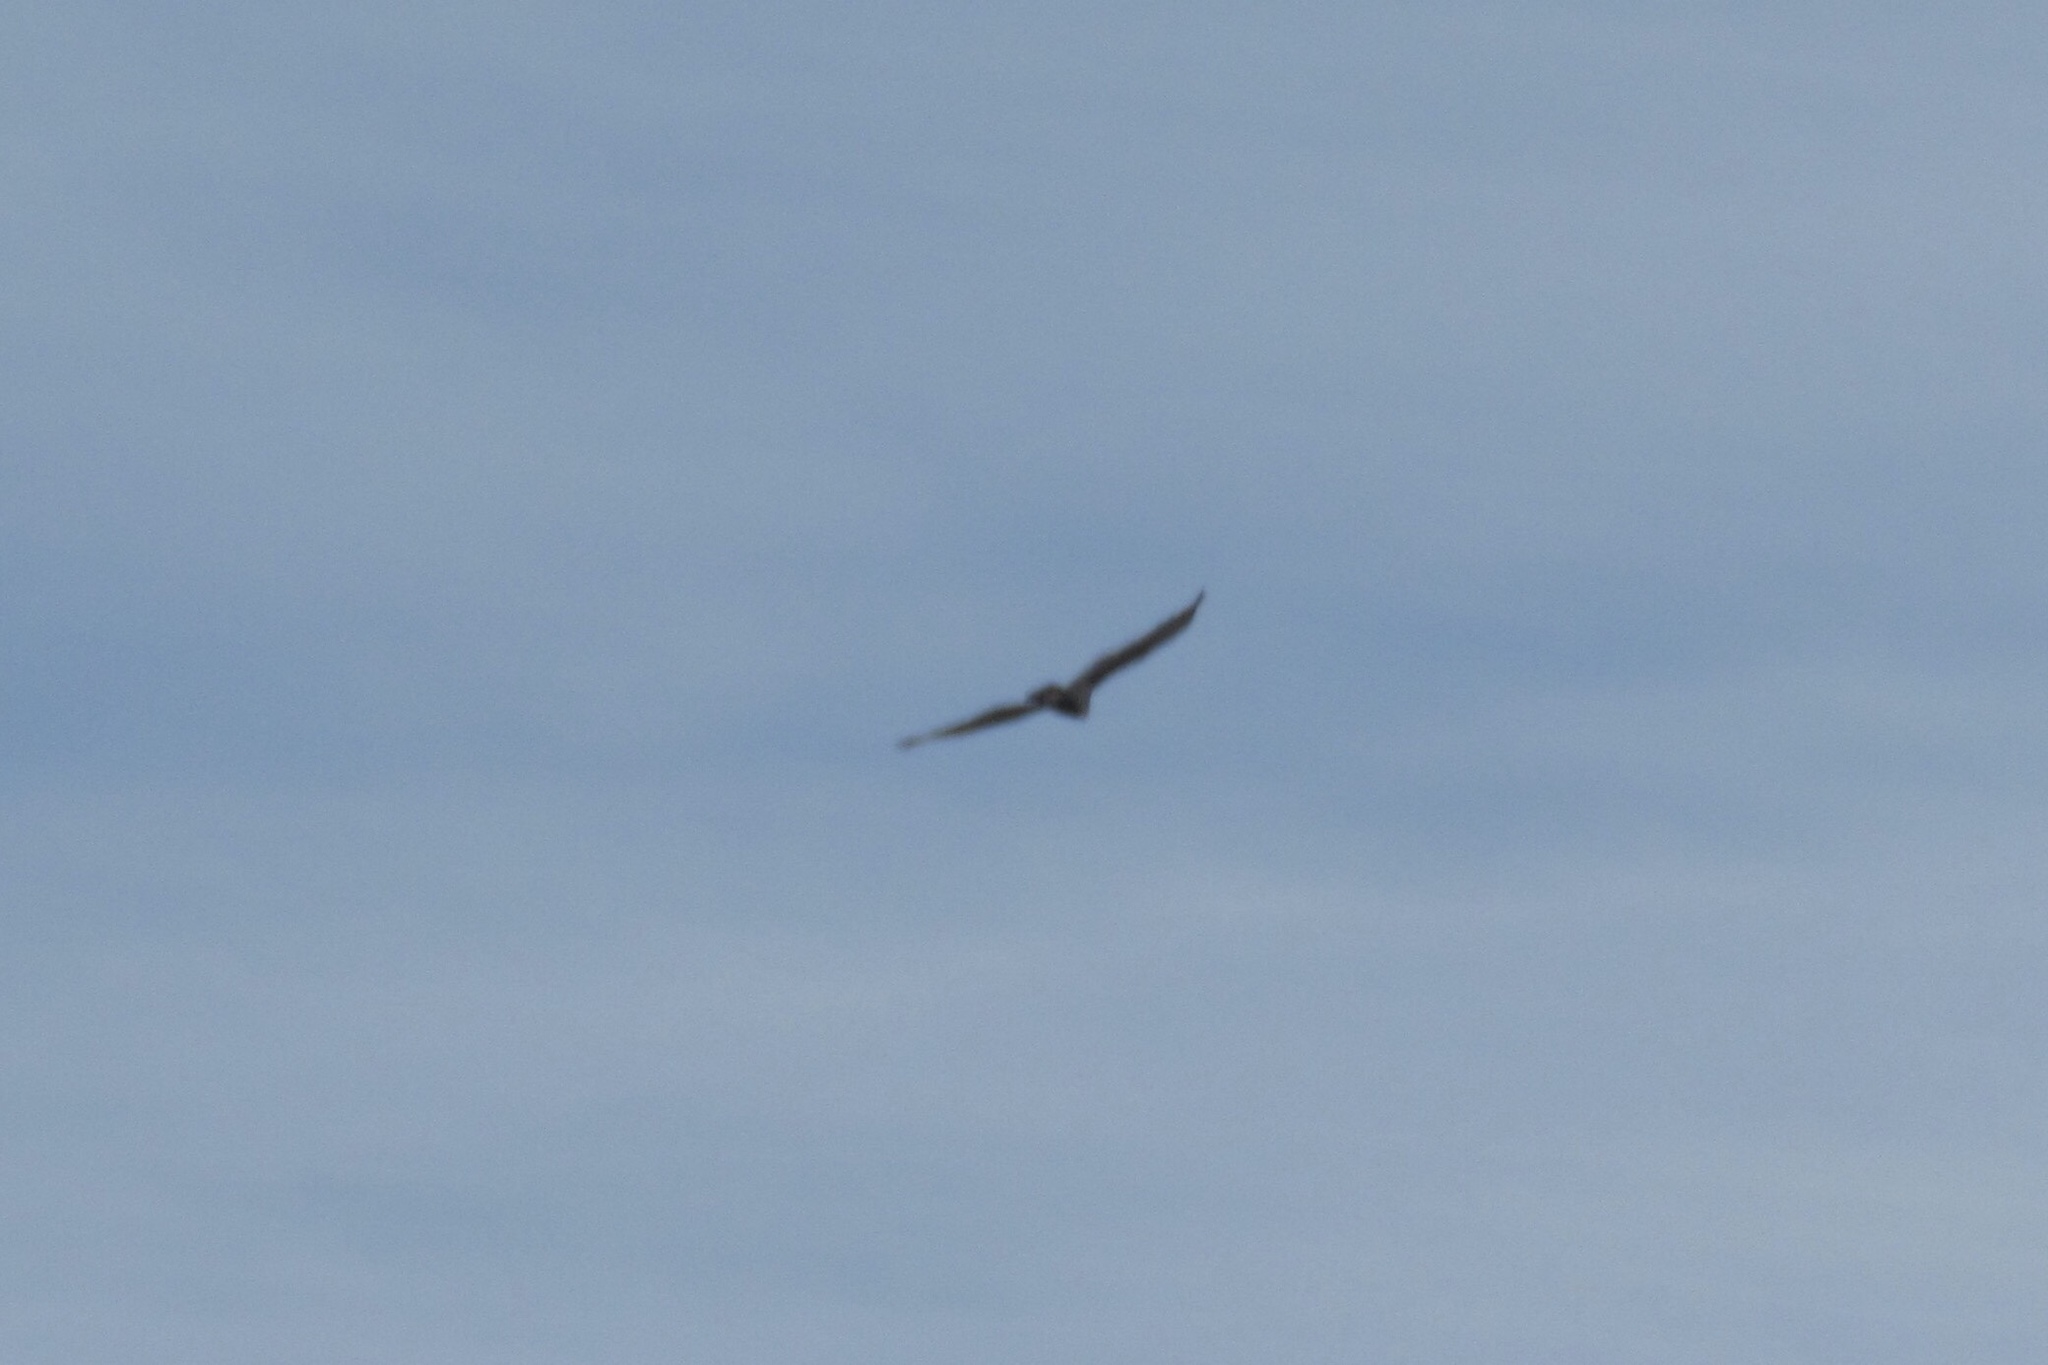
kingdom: Animalia
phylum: Chordata
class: Aves
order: Accipitriformes
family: Cathartidae
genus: Cathartes
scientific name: Cathartes aura
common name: Turkey vulture
